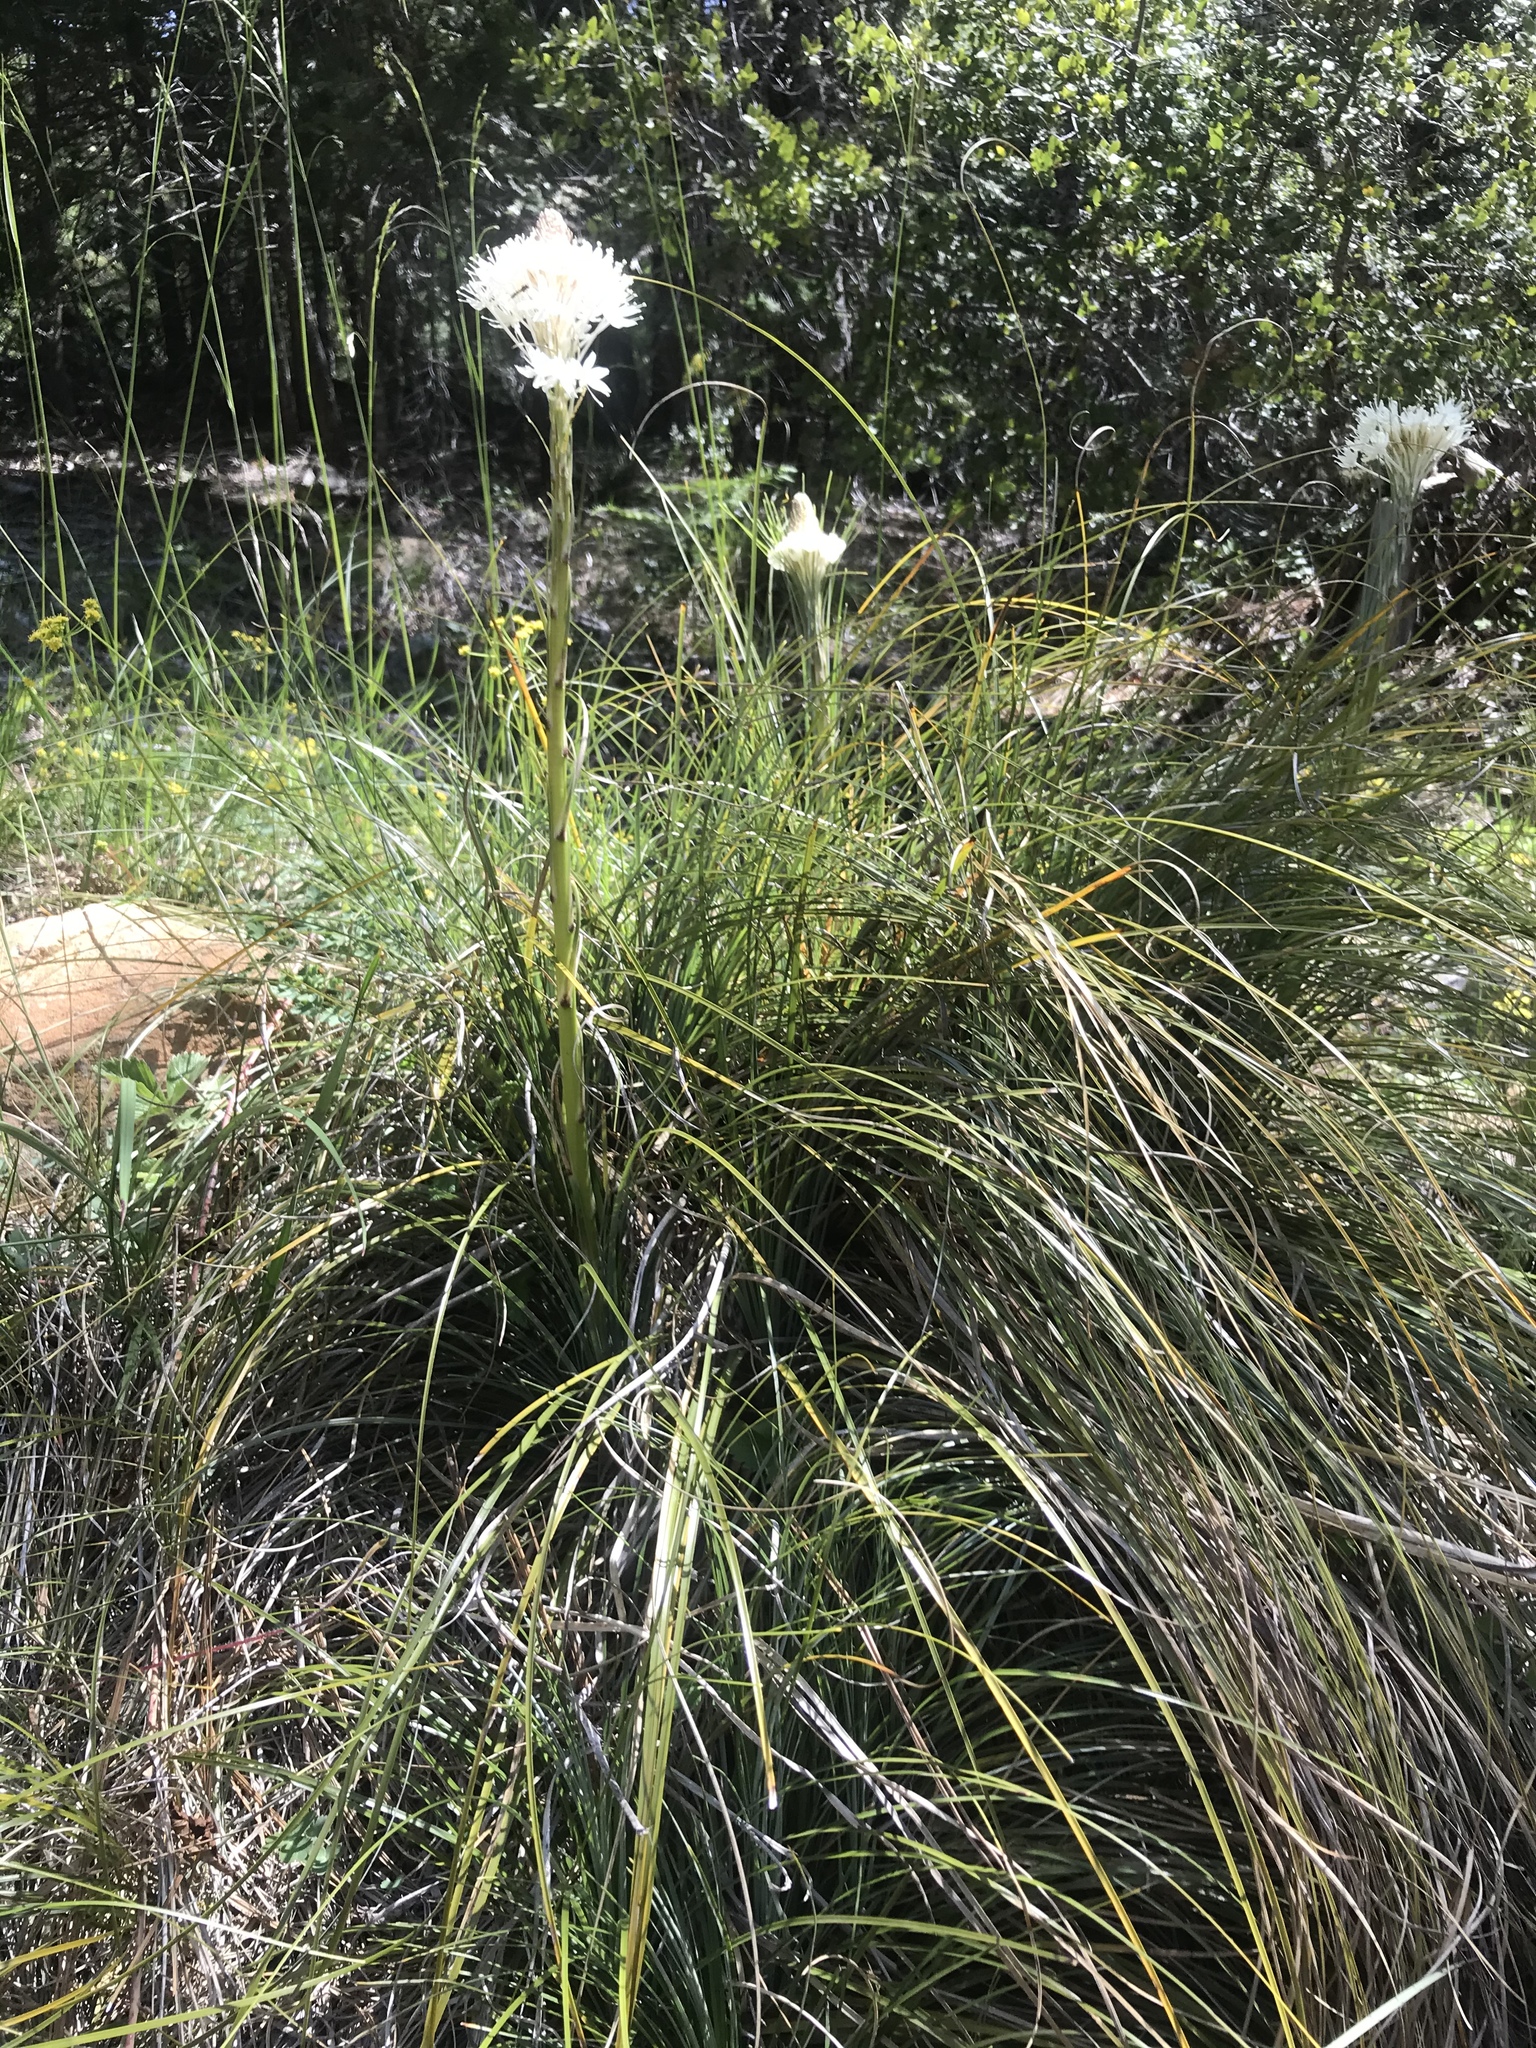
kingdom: Plantae
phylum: Tracheophyta
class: Liliopsida
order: Liliales
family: Melanthiaceae
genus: Xerophyllum
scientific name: Xerophyllum tenax
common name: Bear-grass
